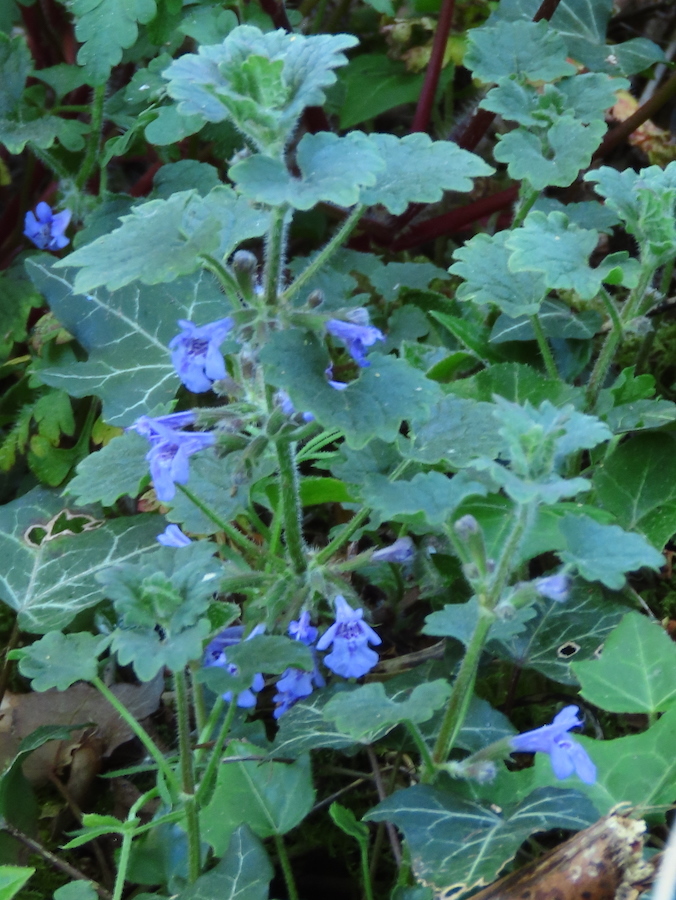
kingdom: Plantae
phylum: Tracheophyta
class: Magnoliopsida
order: Lamiales
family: Lamiaceae
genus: Glechoma
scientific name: Glechoma hederacea
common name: Ground ivy
